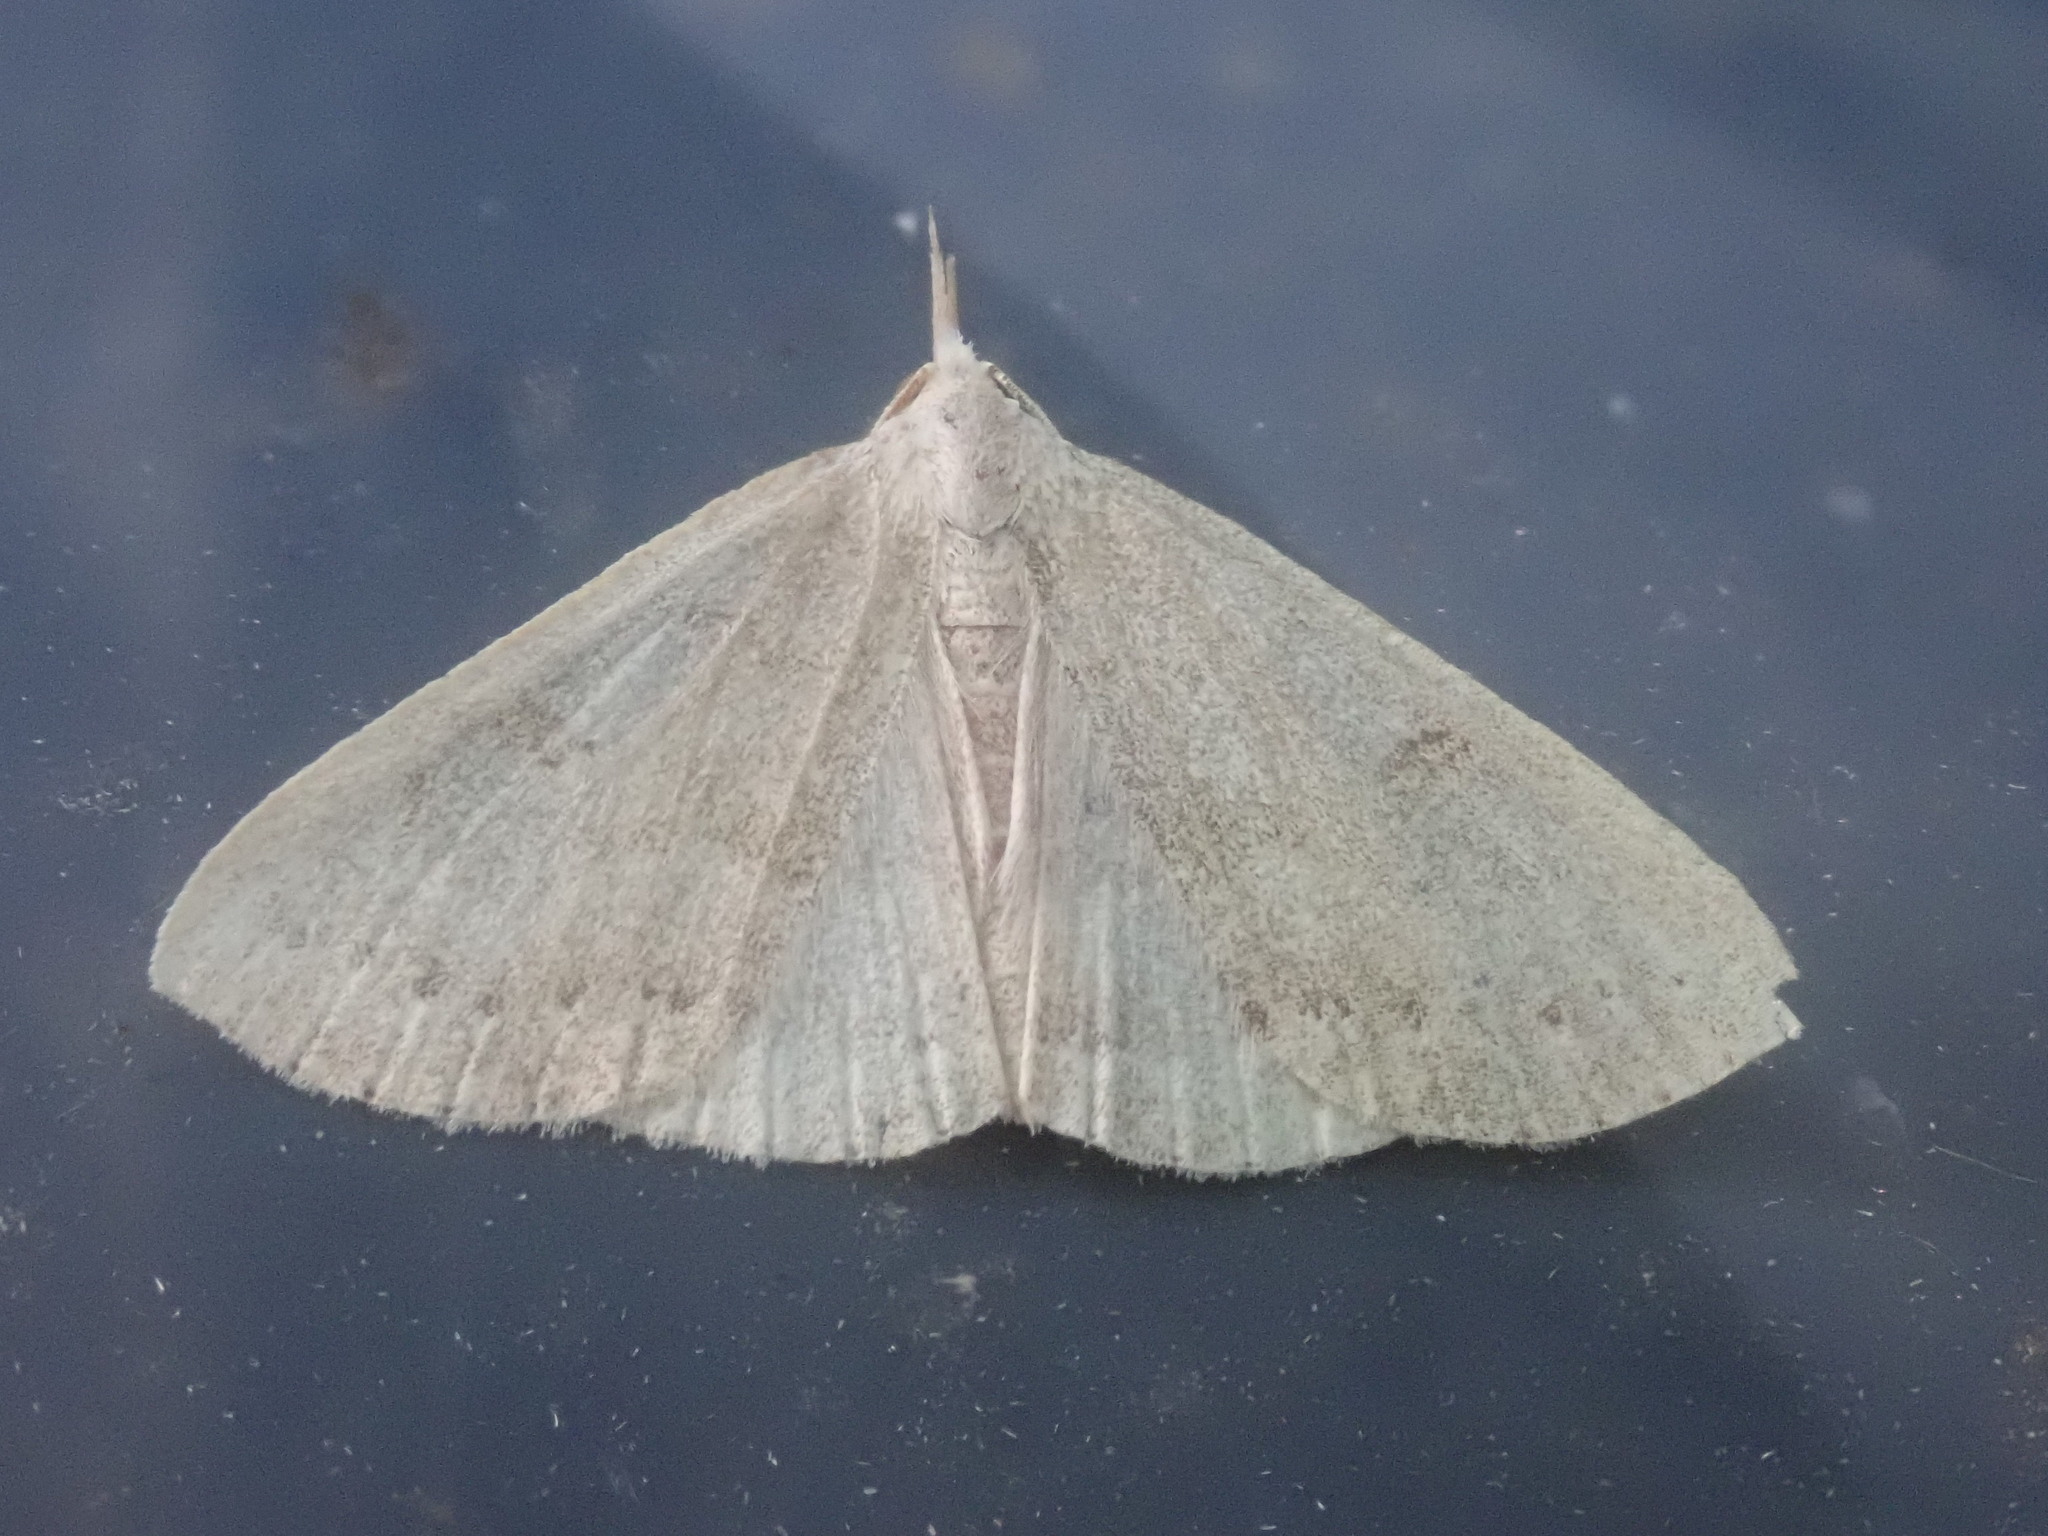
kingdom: Animalia
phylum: Arthropoda
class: Insecta
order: Lepidoptera
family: Erebidae
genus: Macrochilo
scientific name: Macrochilo morbidalis
